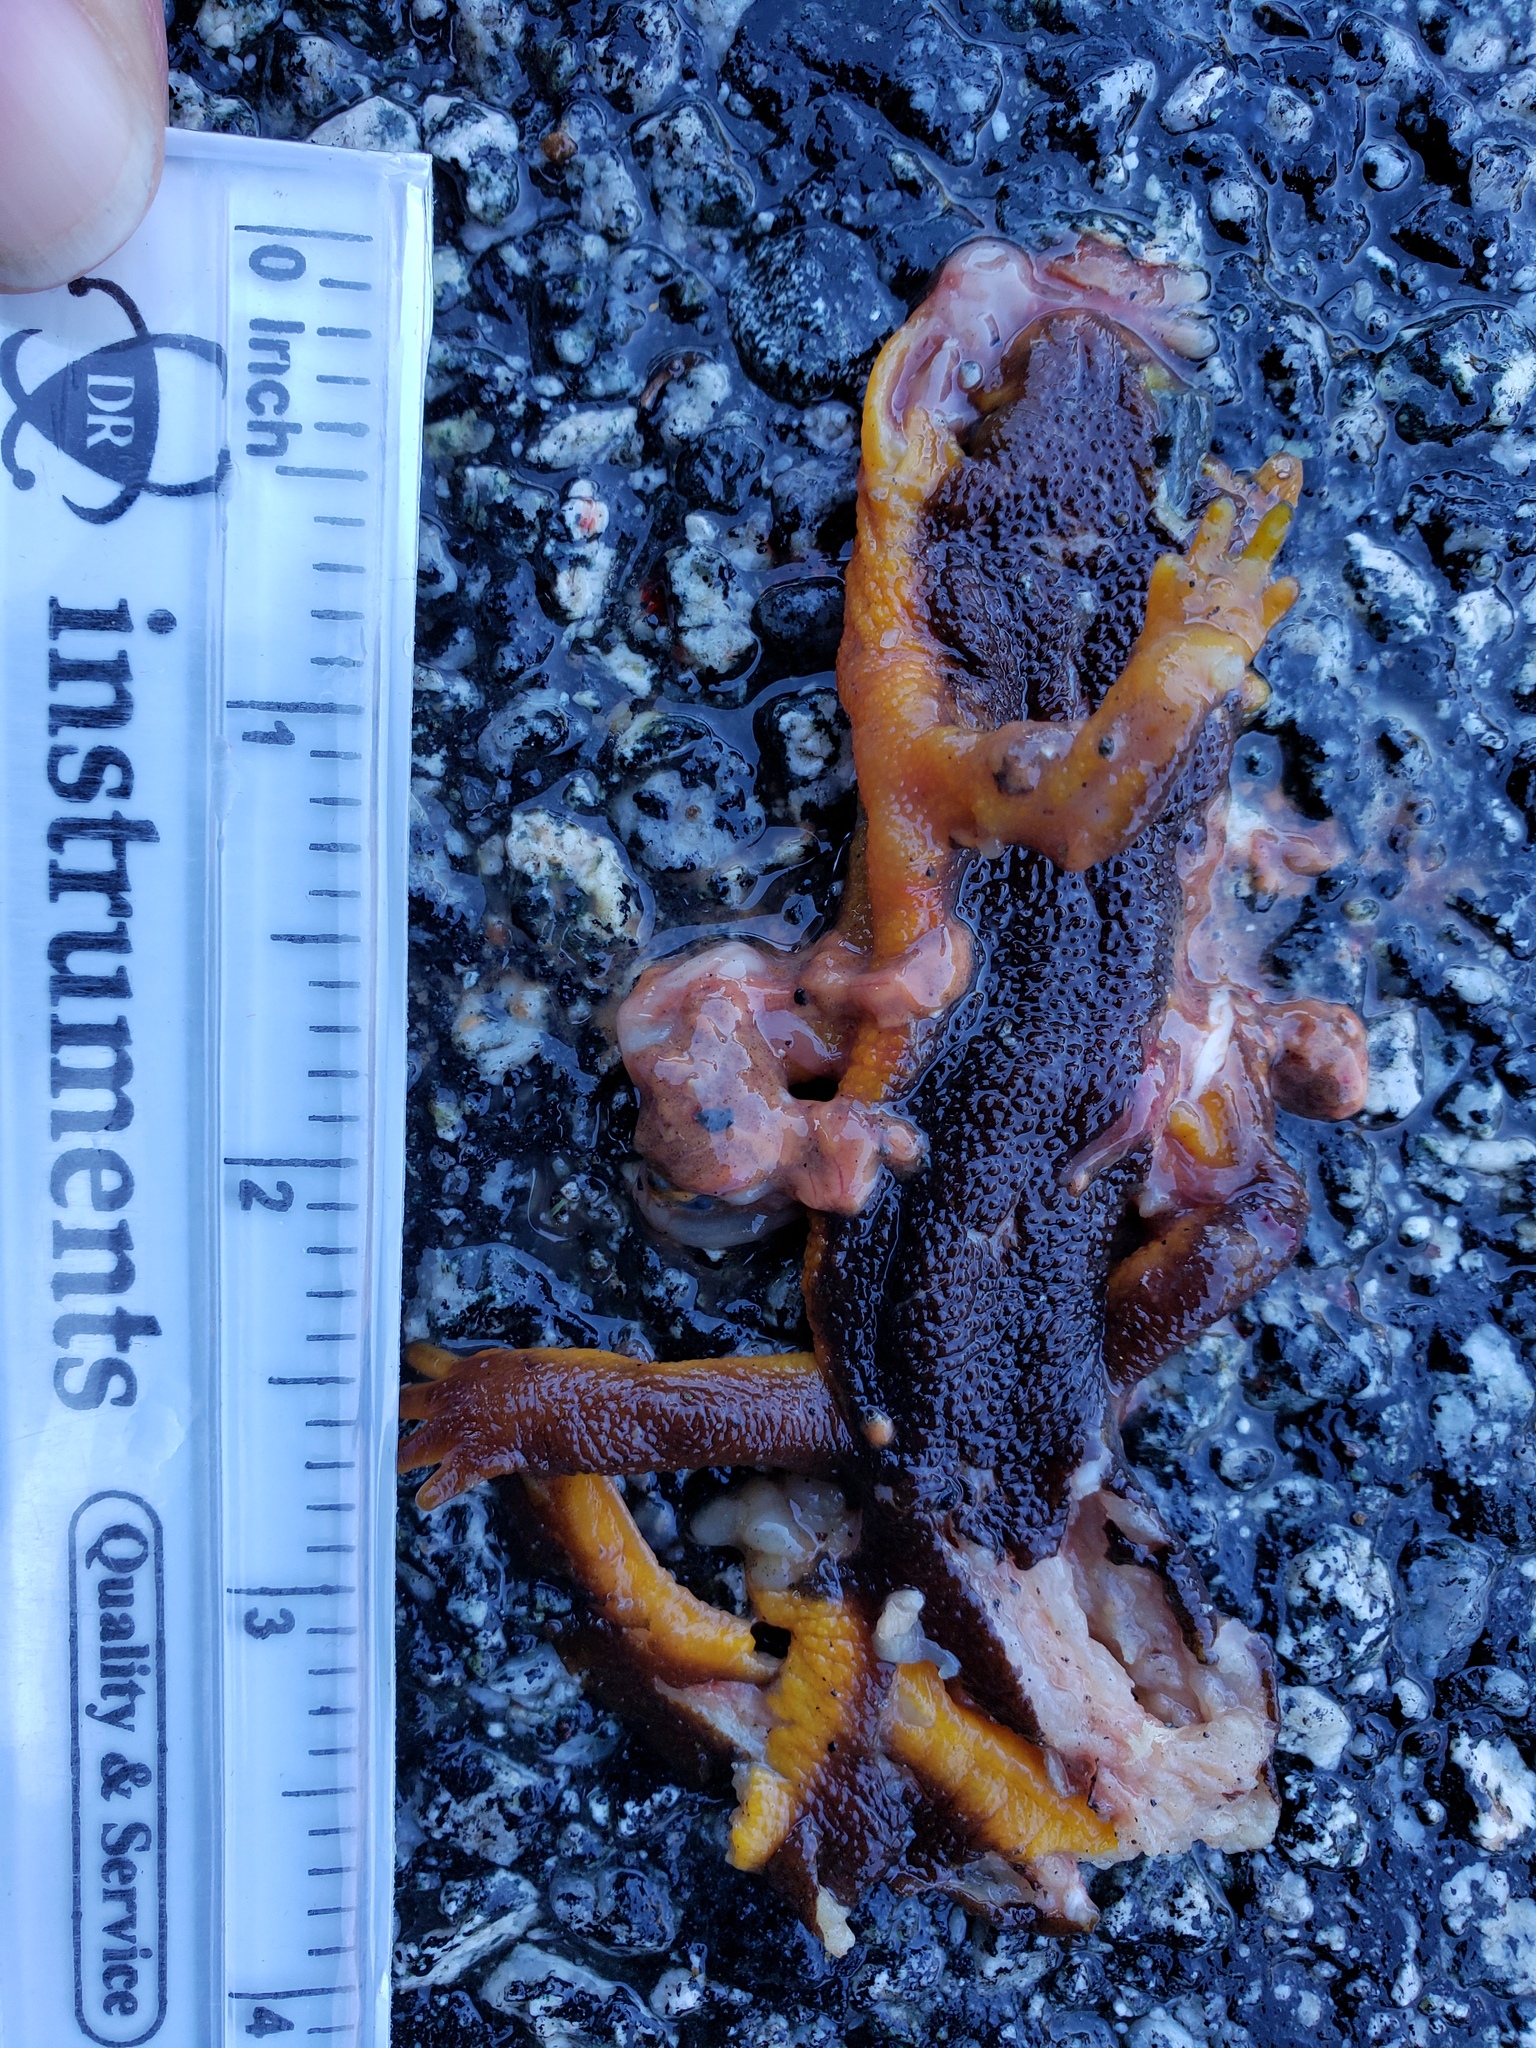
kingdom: Animalia
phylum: Chordata
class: Amphibia
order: Caudata
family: Salamandridae
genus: Taricha
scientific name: Taricha
